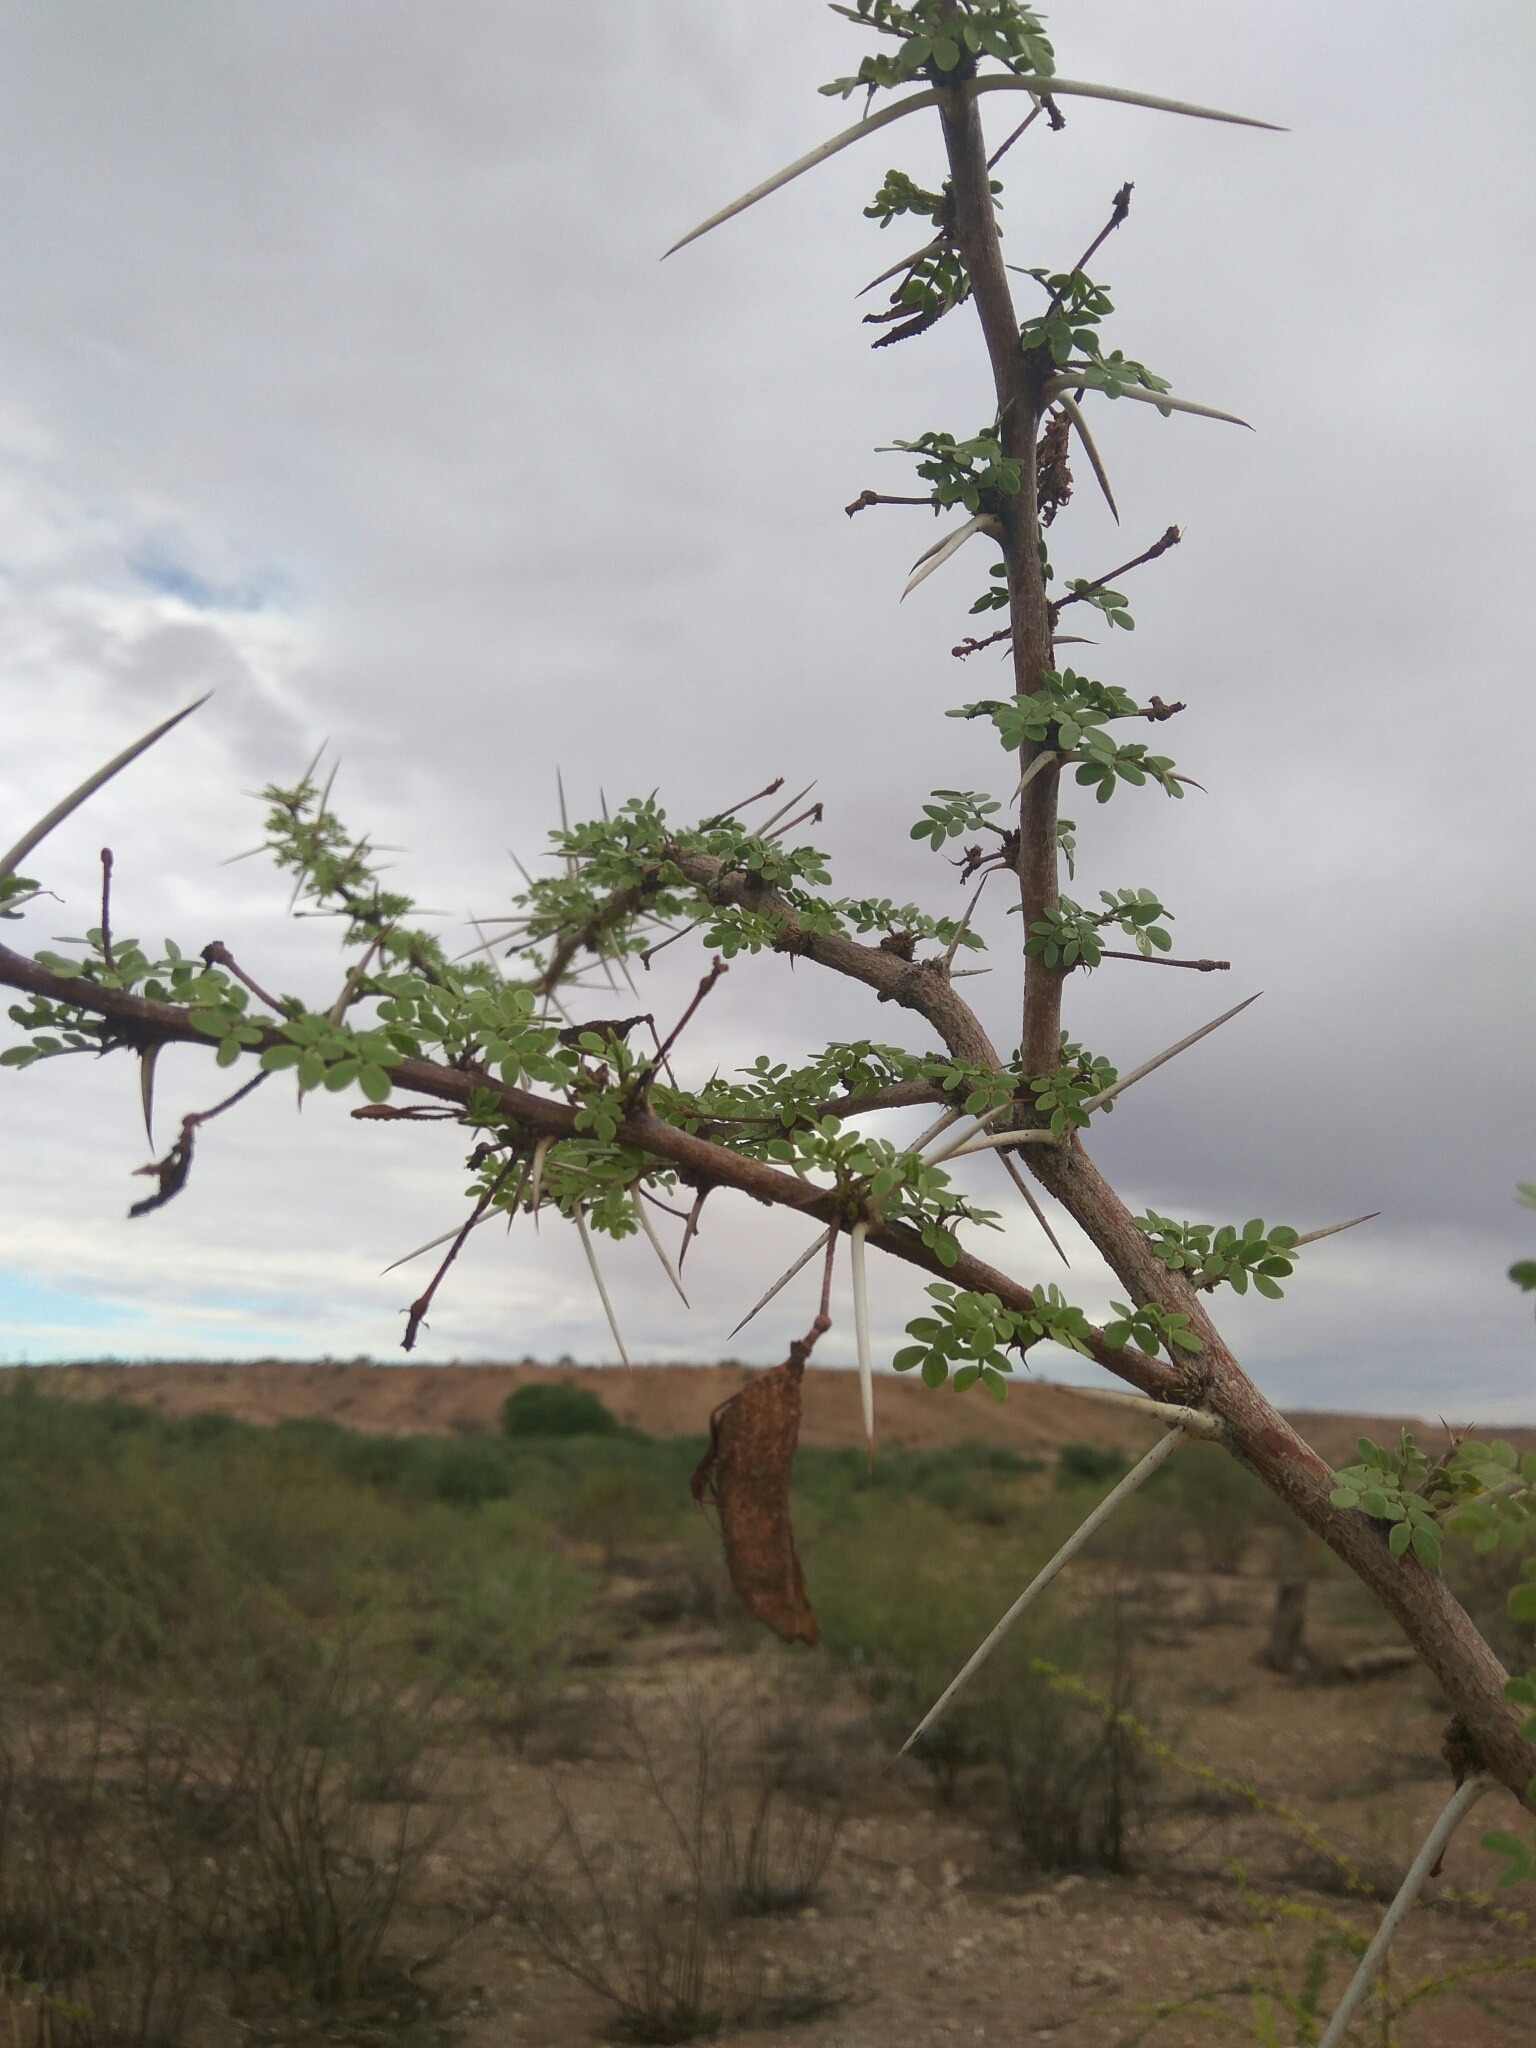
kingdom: Plantae
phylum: Tracheophyta
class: Magnoliopsida
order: Fabales
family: Fabaceae
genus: Vachellia
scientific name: Vachellia nebrownii
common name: Water acacia
